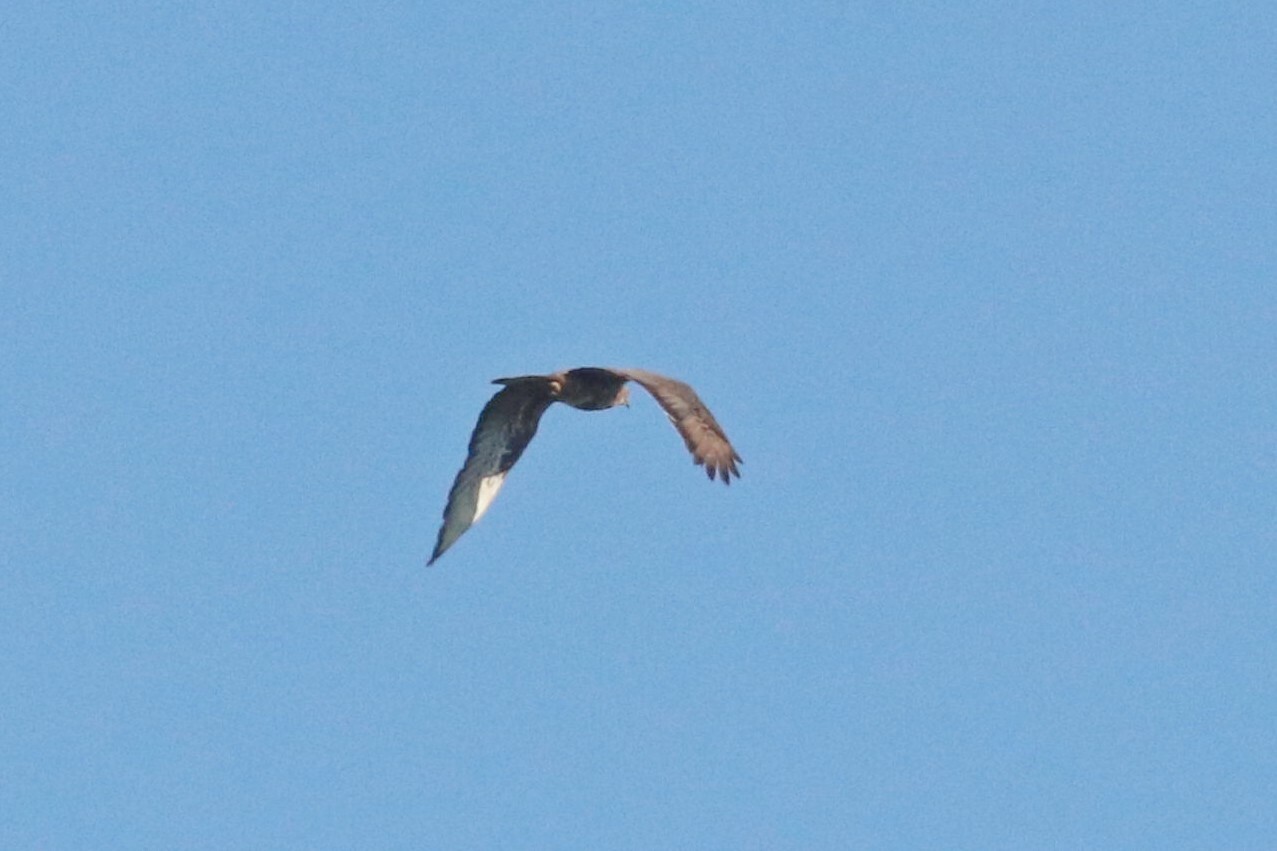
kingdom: Animalia
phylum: Chordata
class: Aves
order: Accipitriformes
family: Accipitridae
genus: Pernis
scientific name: Pernis apivorus
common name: European honey buzzard
